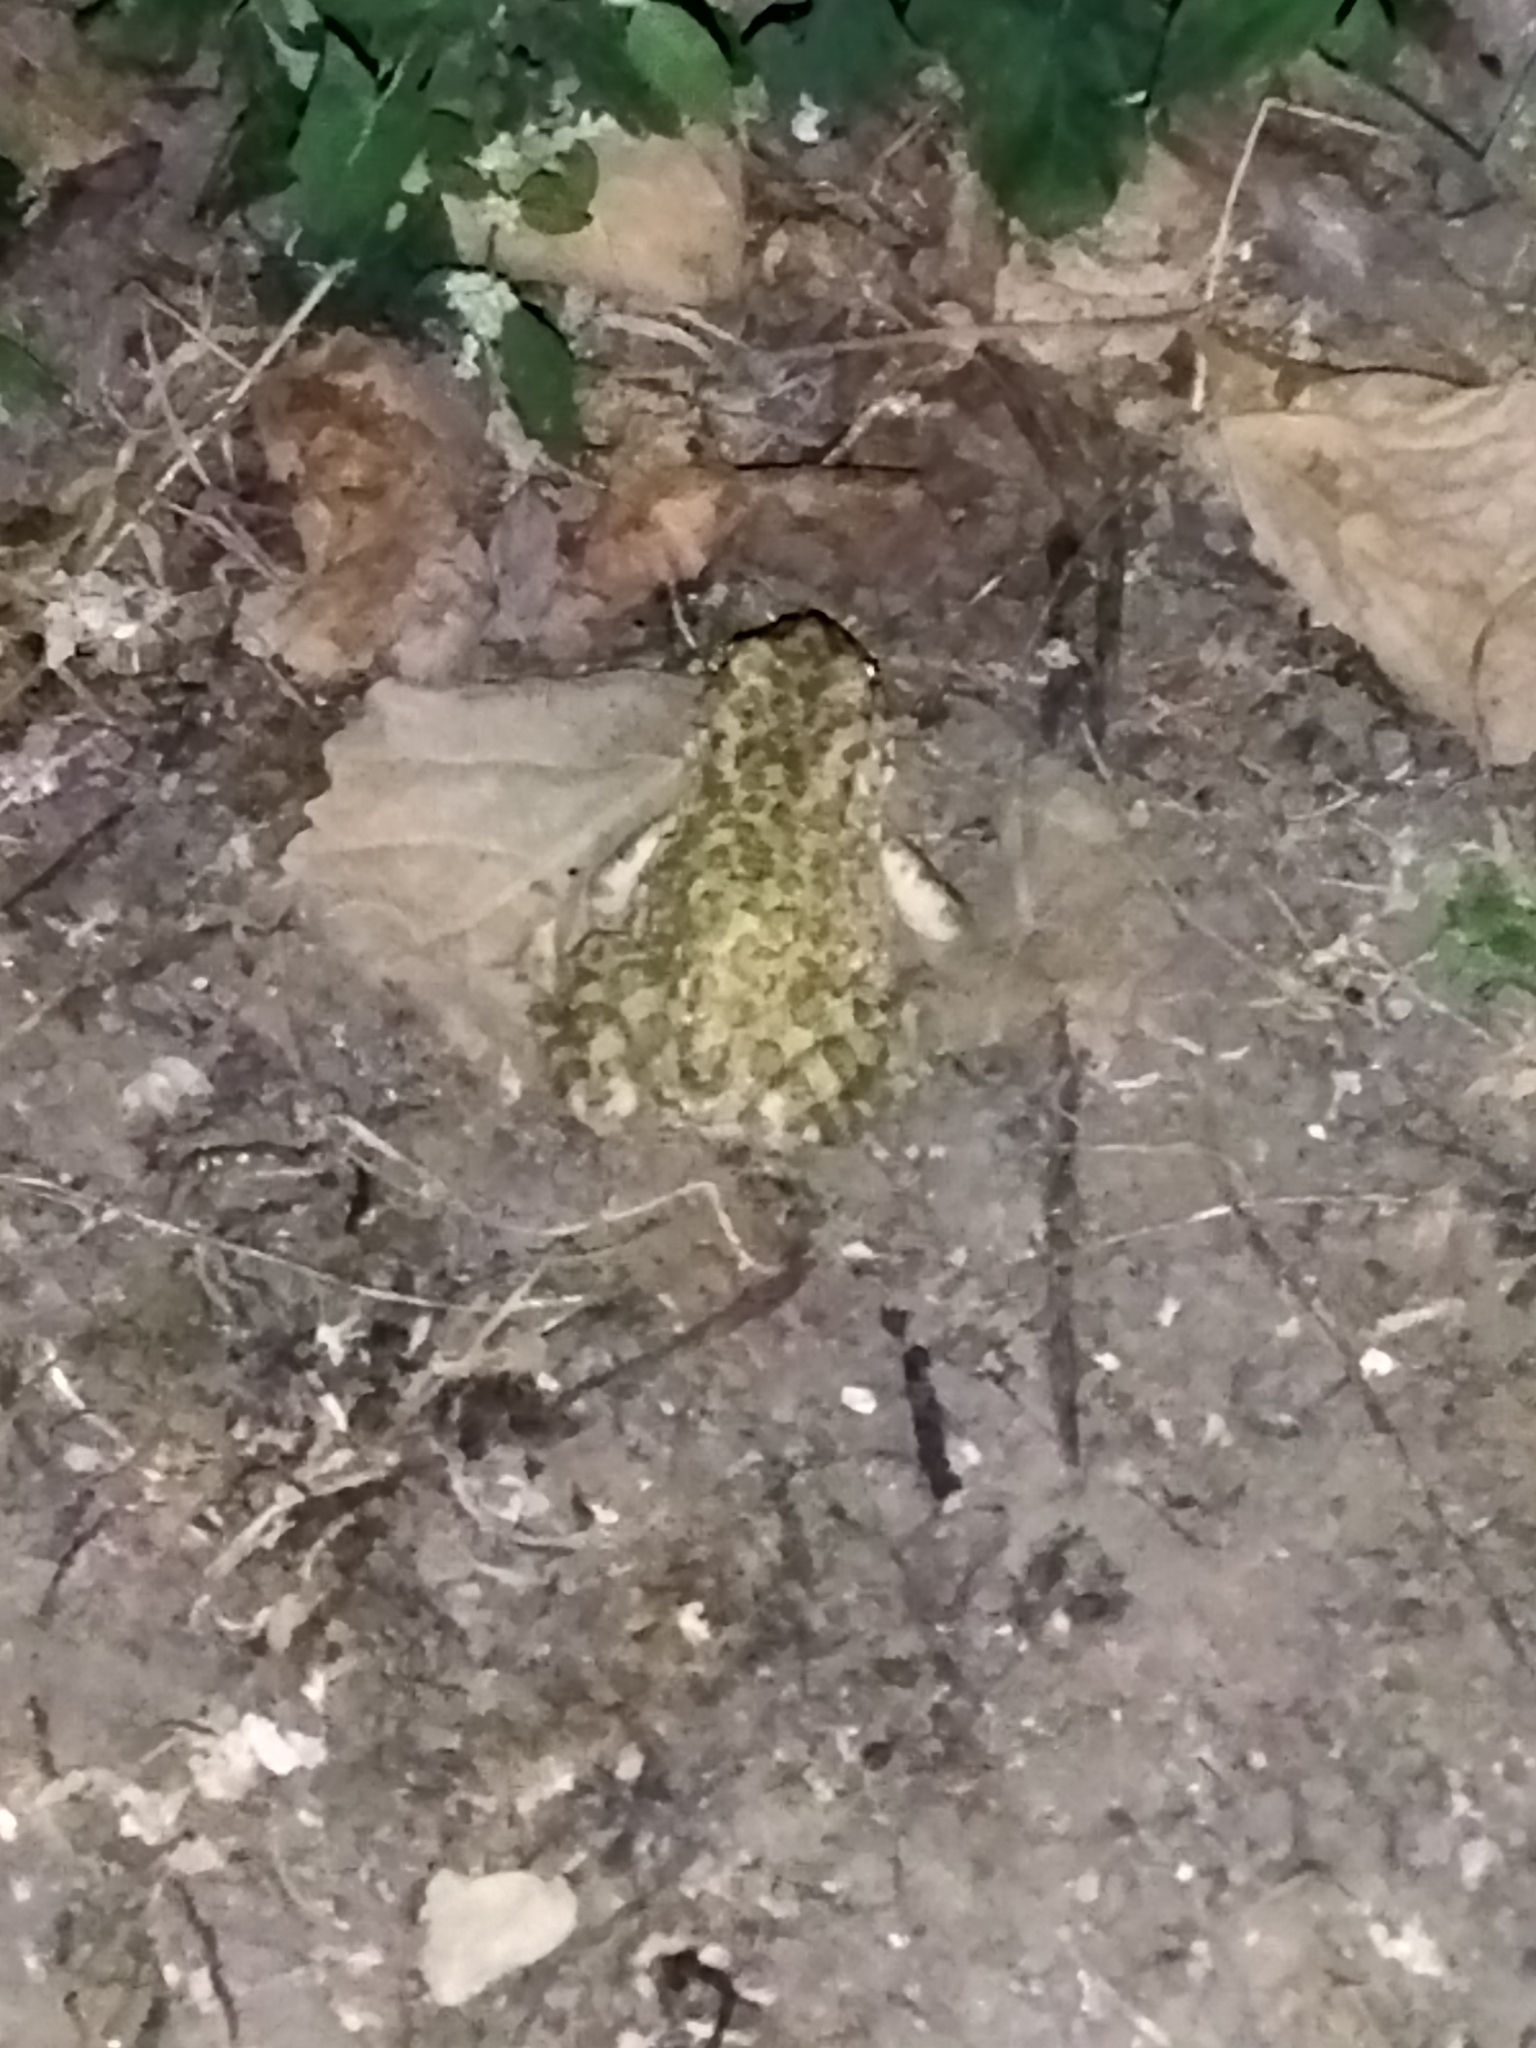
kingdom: Animalia
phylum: Chordata
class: Amphibia
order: Anura
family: Bufonidae
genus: Bufotes
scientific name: Bufotes viridis
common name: European green toad
